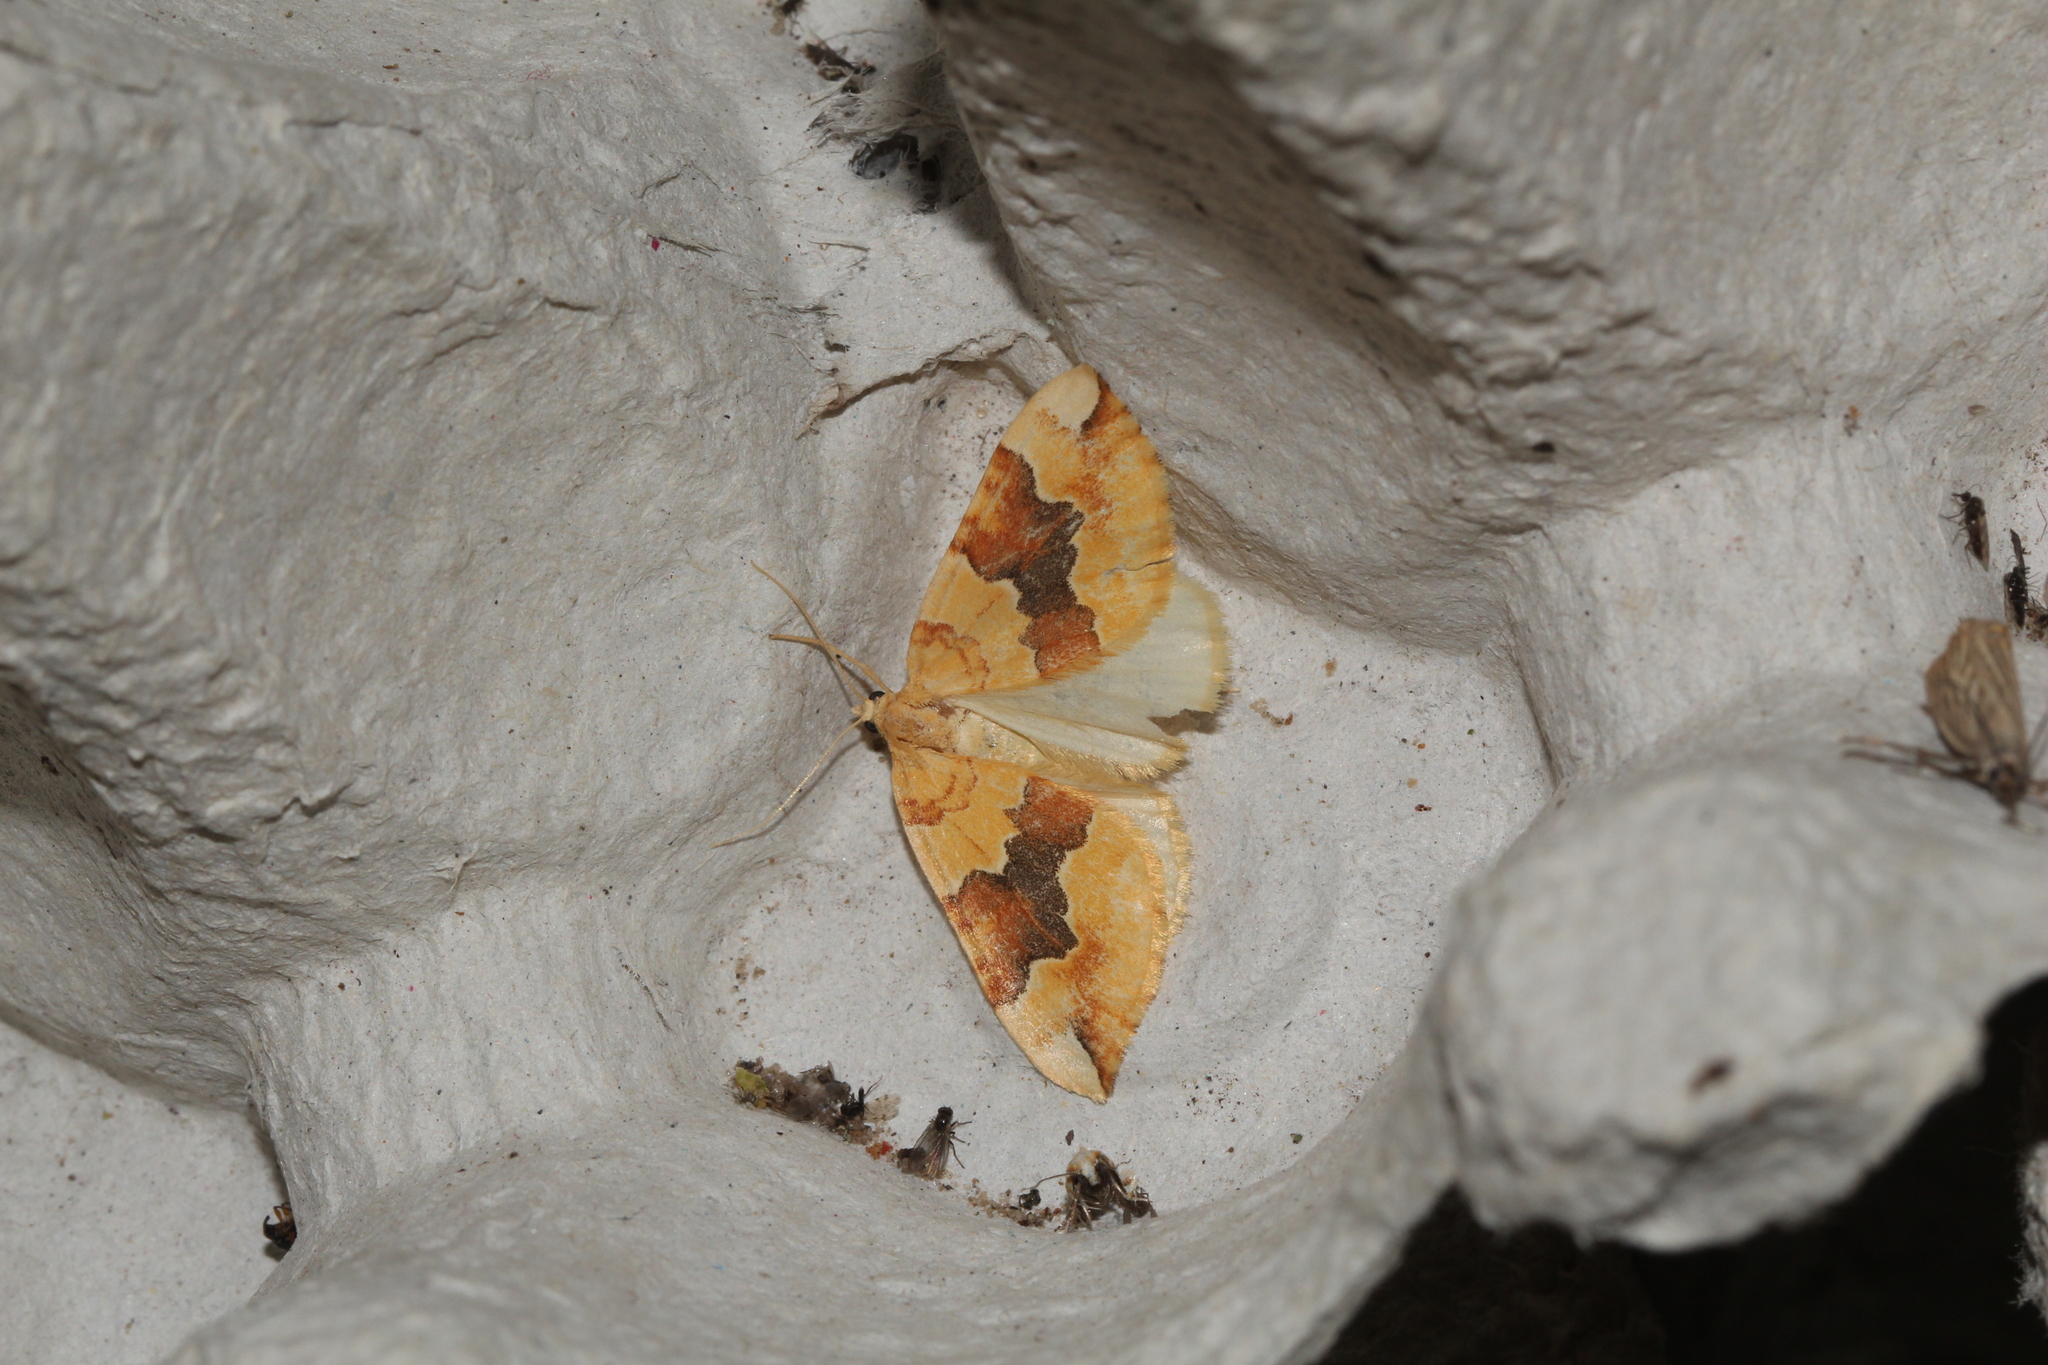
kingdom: Animalia
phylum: Arthropoda
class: Insecta
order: Lepidoptera
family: Geometridae
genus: Cidaria
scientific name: Cidaria fulvata
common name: Barred yellow
